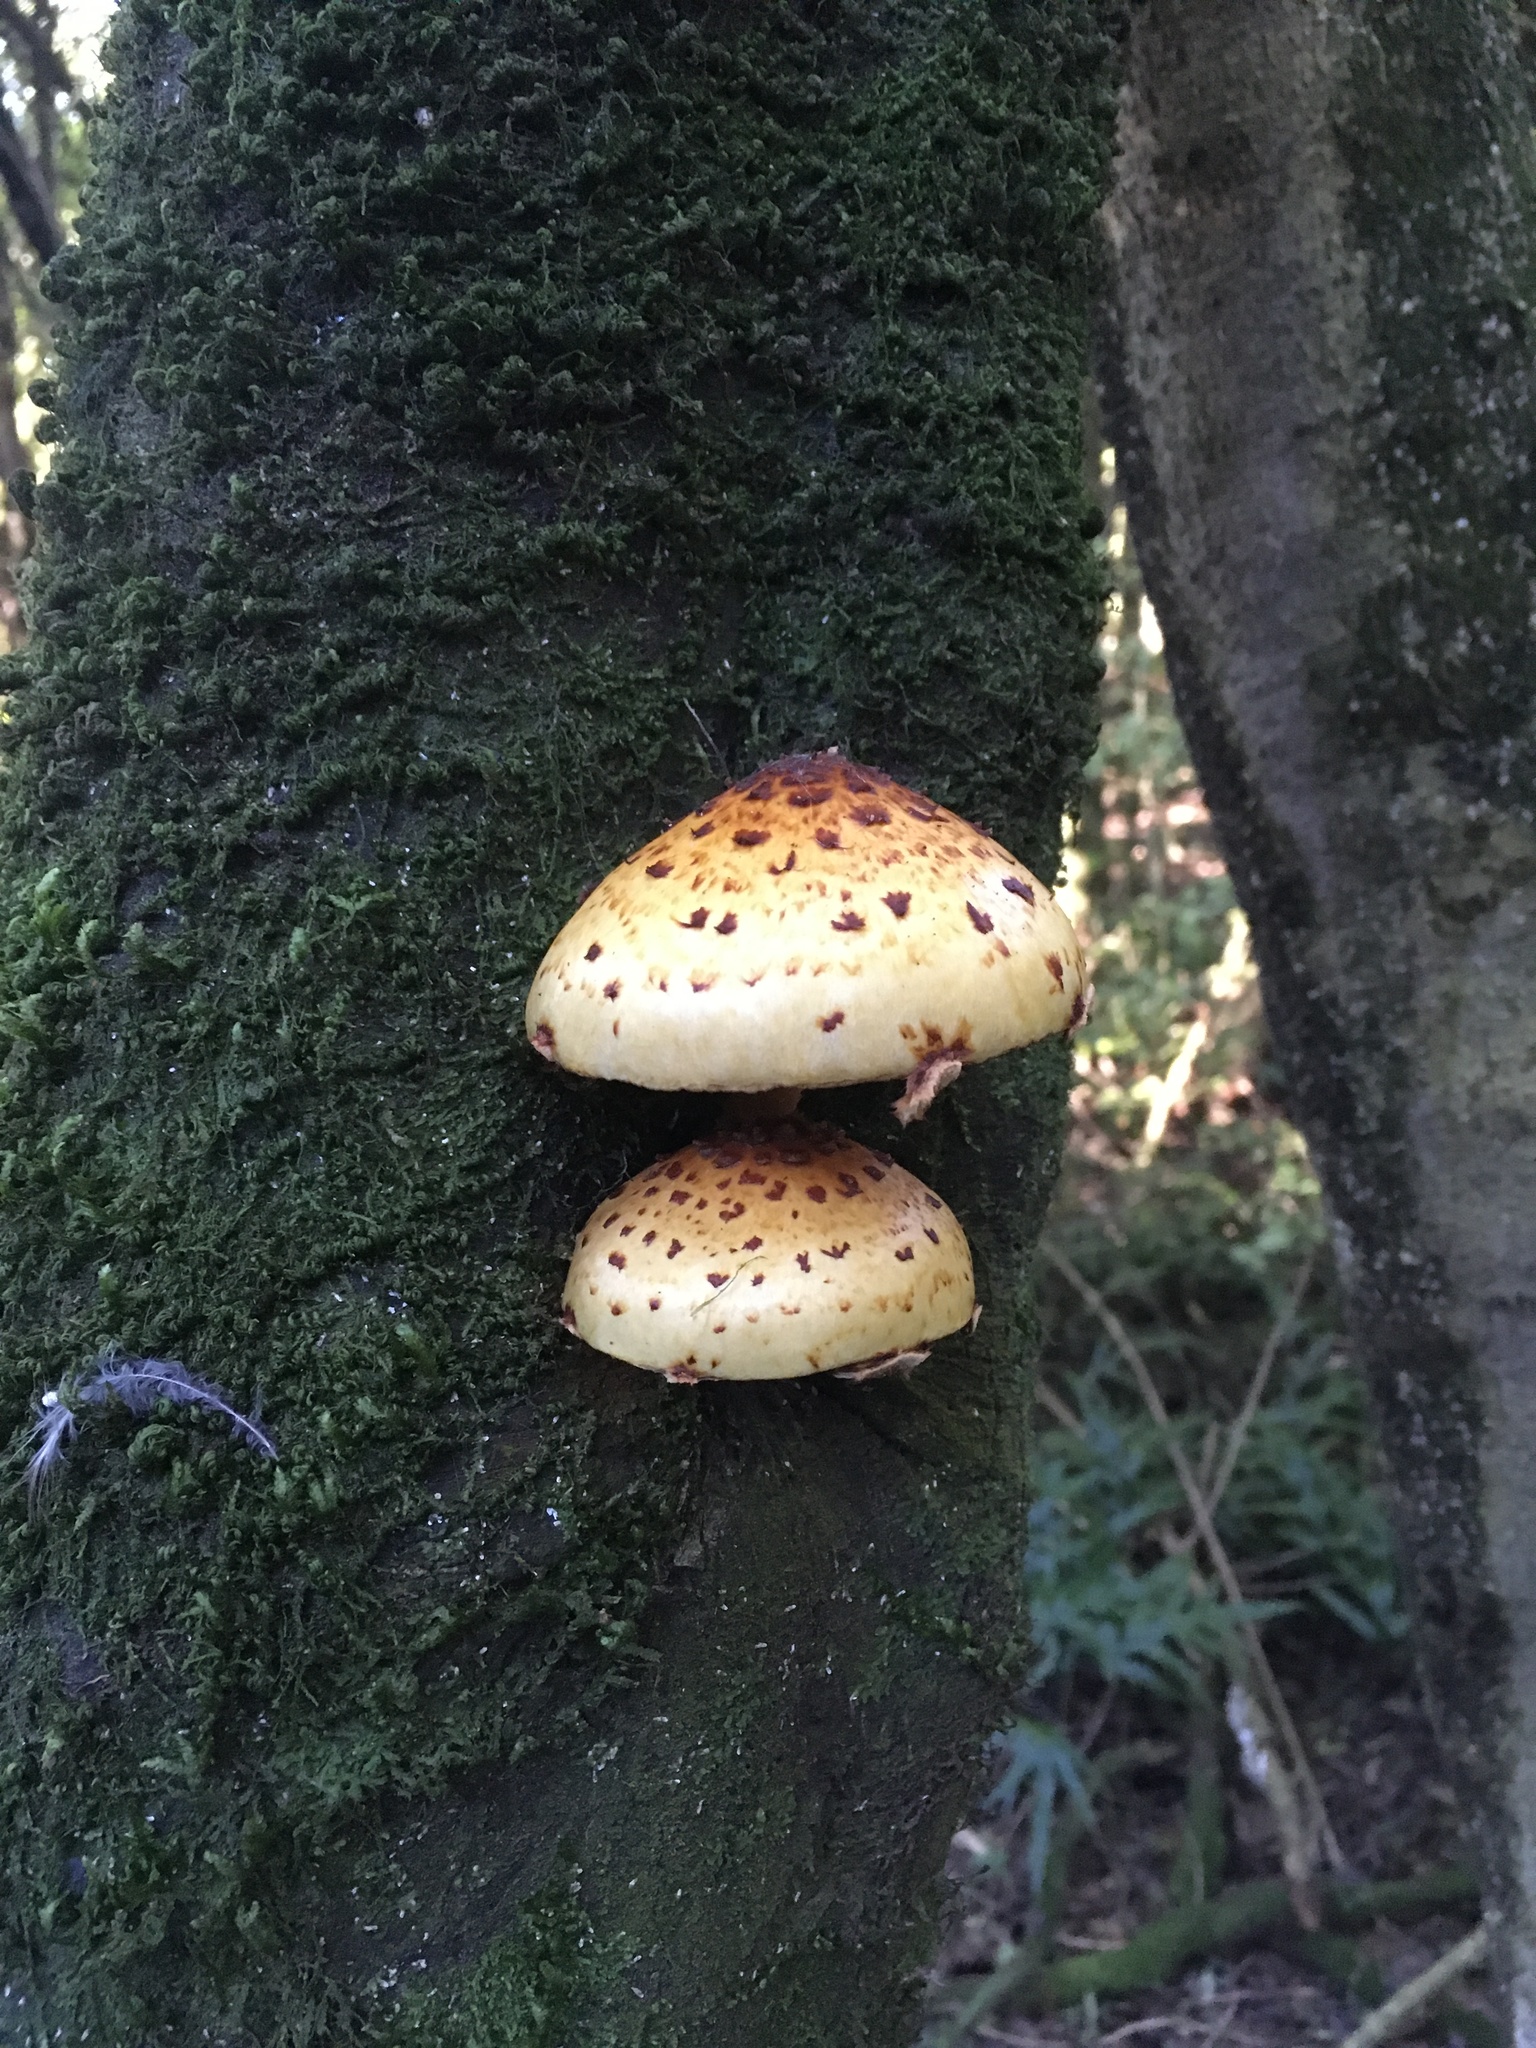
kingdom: Fungi
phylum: Basidiomycota
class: Agaricomycetes
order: Agaricales
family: Strophariaceae
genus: Pholiota
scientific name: Pholiota glutinosa
